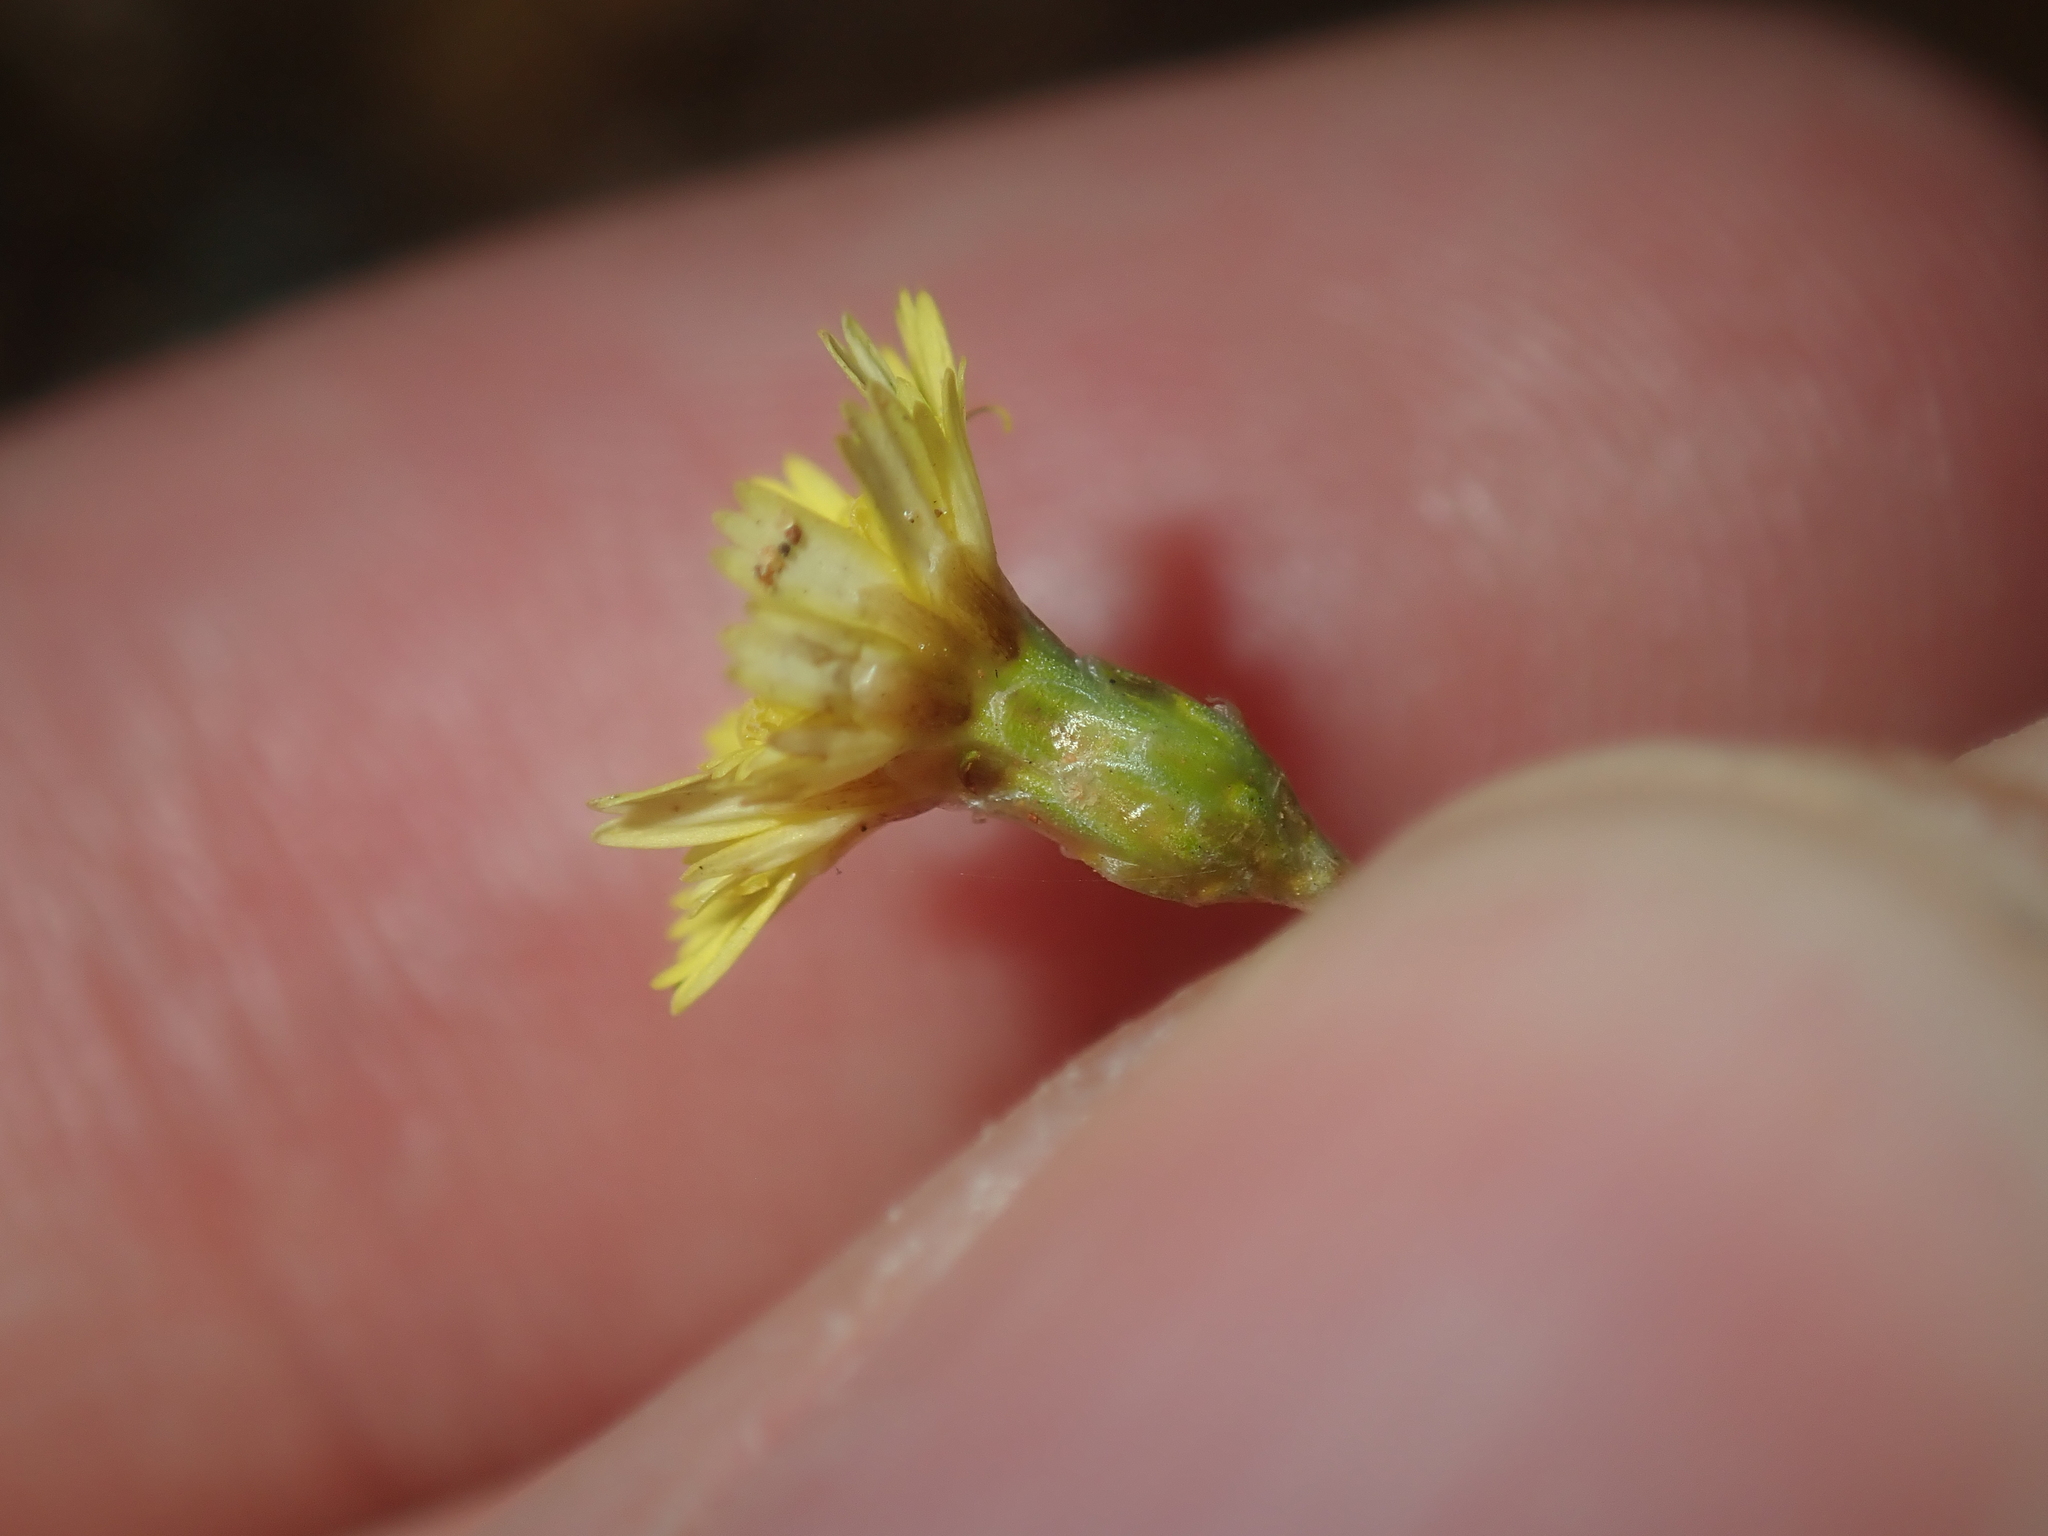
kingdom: Plantae
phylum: Tracheophyta
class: Magnoliopsida
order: Asterales
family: Asteraceae
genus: Siemssenia
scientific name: Siemssenia capillaris
